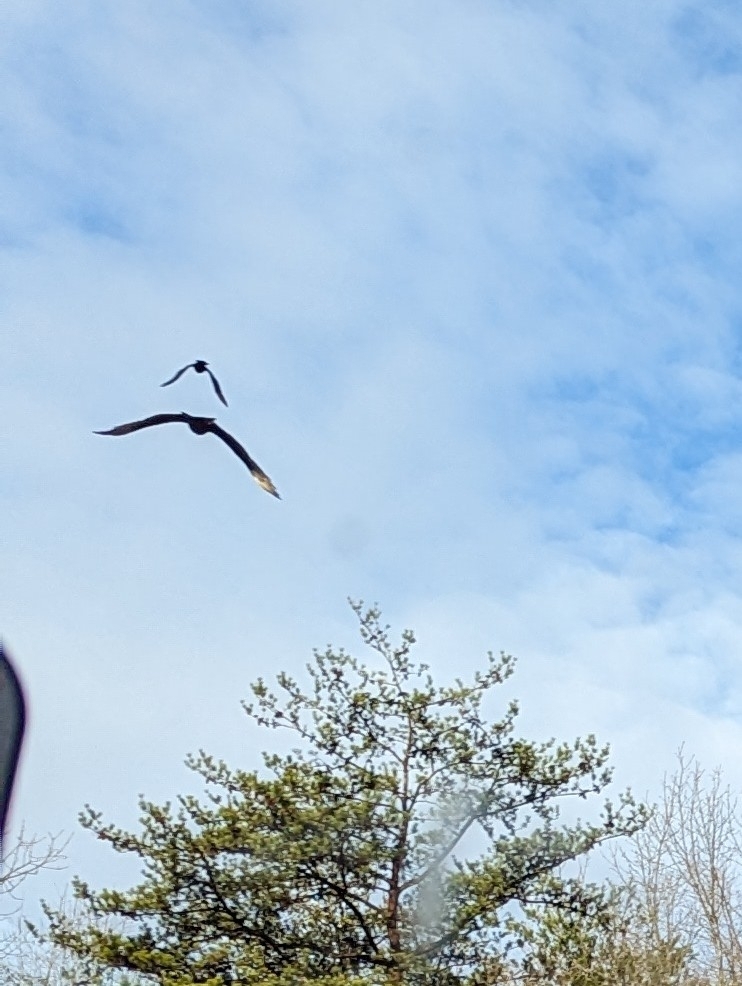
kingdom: Animalia
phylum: Chordata
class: Aves
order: Accipitriformes
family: Cathartidae
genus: Cathartes
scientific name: Cathartes aura
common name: Turkey vulture
